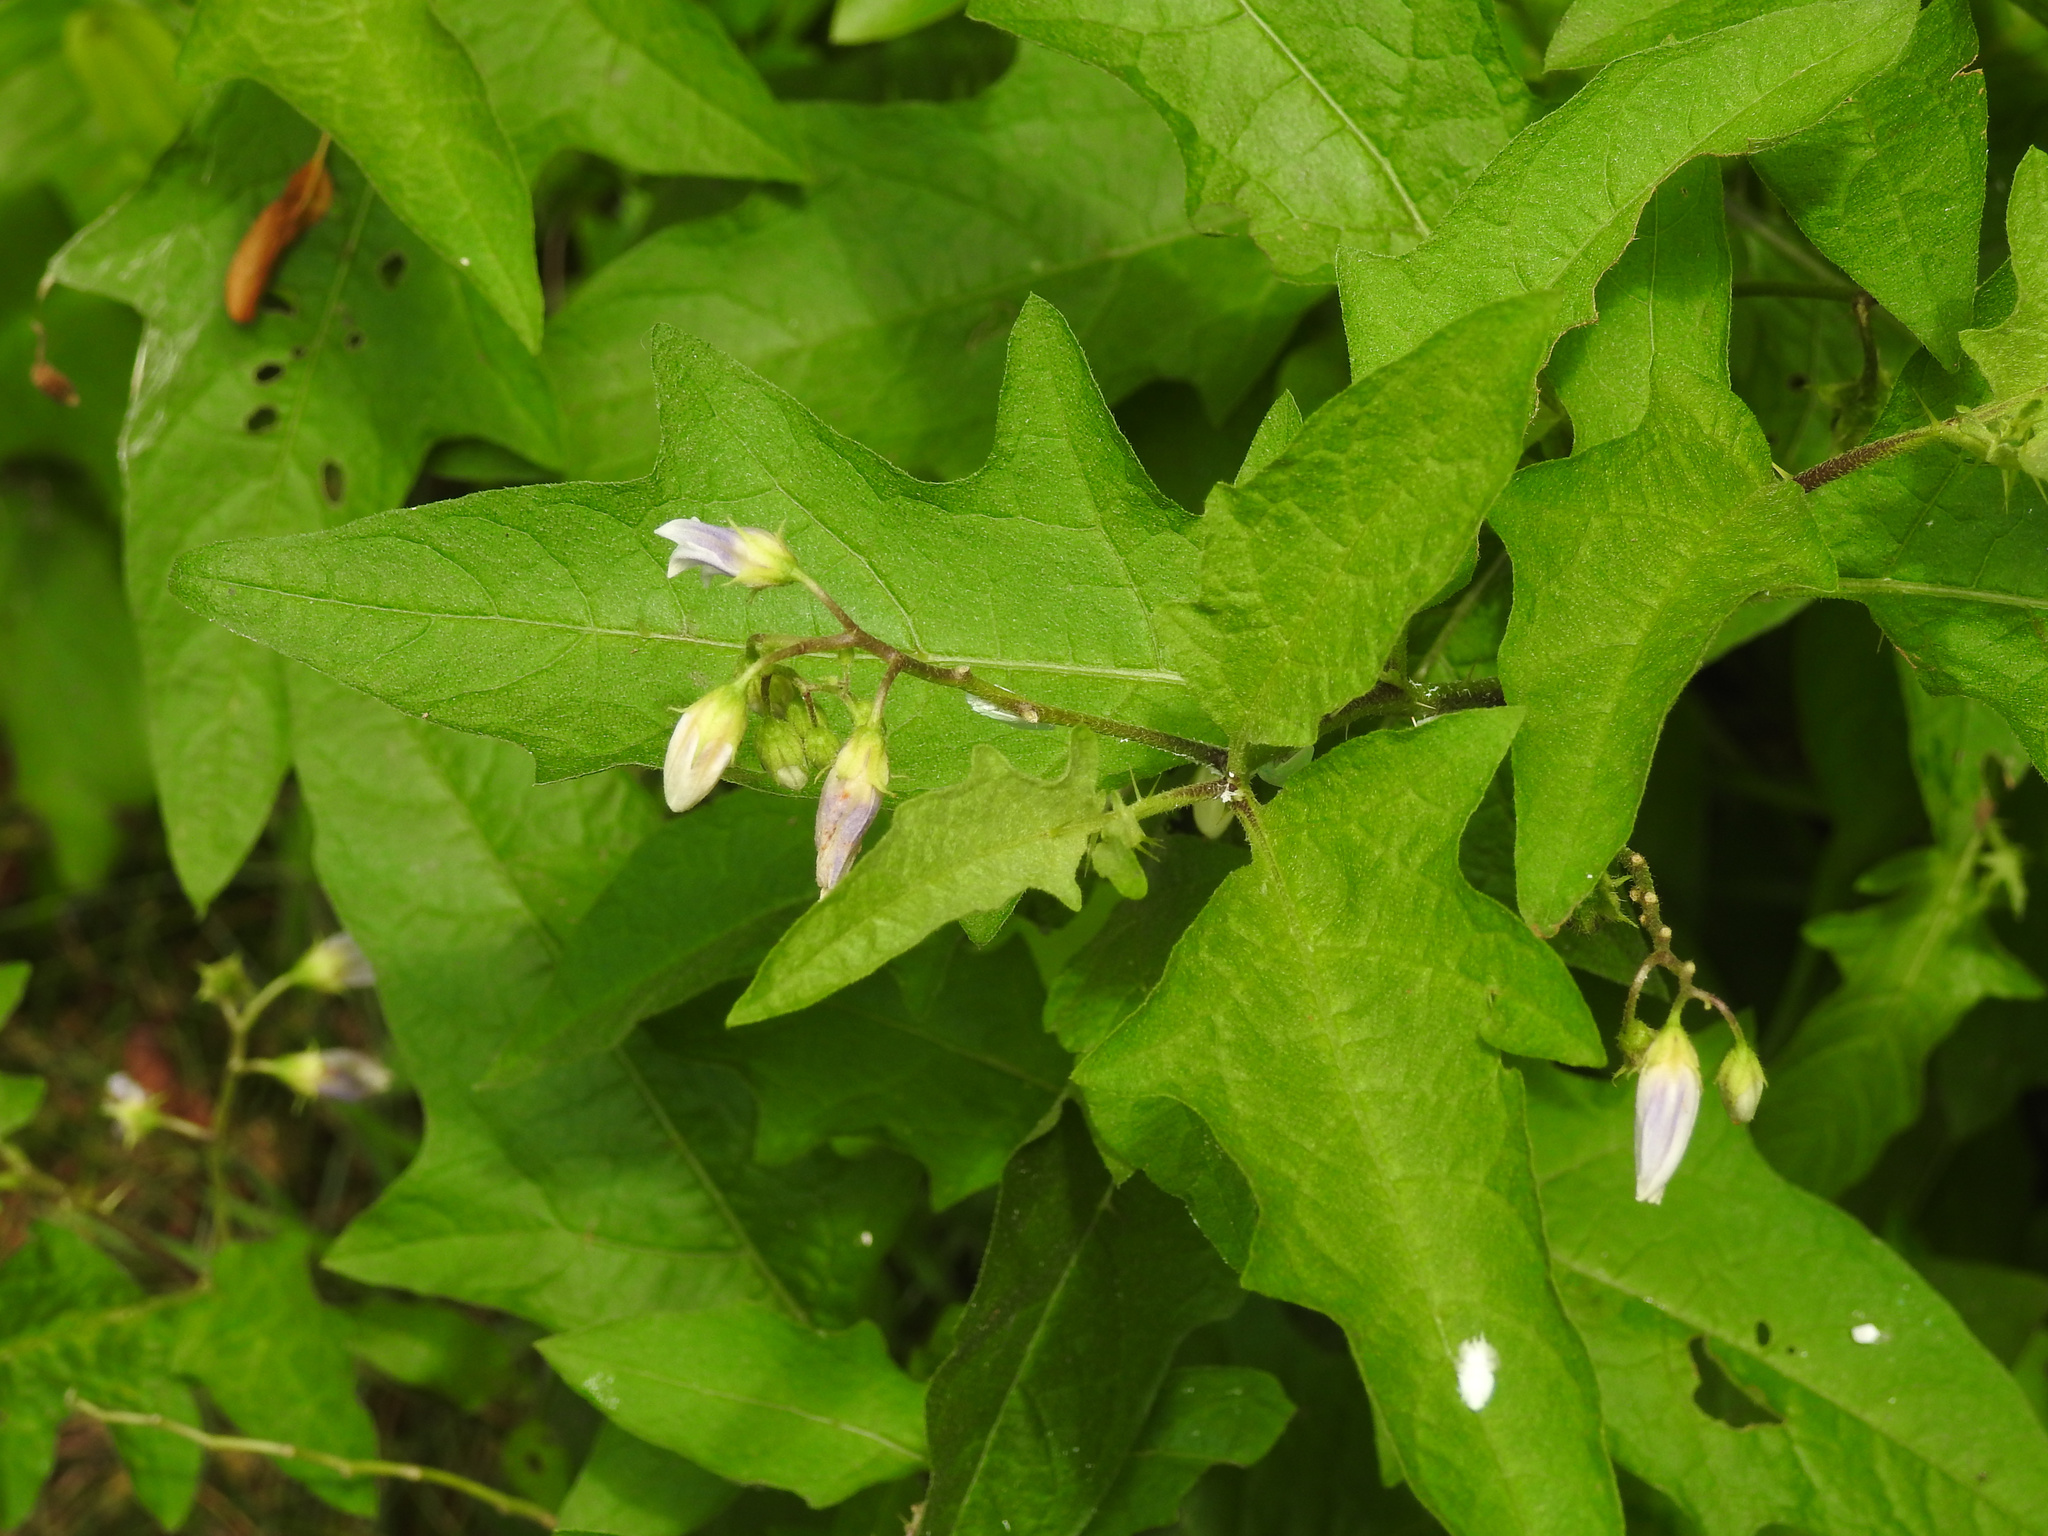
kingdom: Plantae
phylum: Tracheophyta
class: Magnoliopsida
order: Solanales
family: Solanaceae
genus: Solanum
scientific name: Solanum carolinense
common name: Horse-nettle
